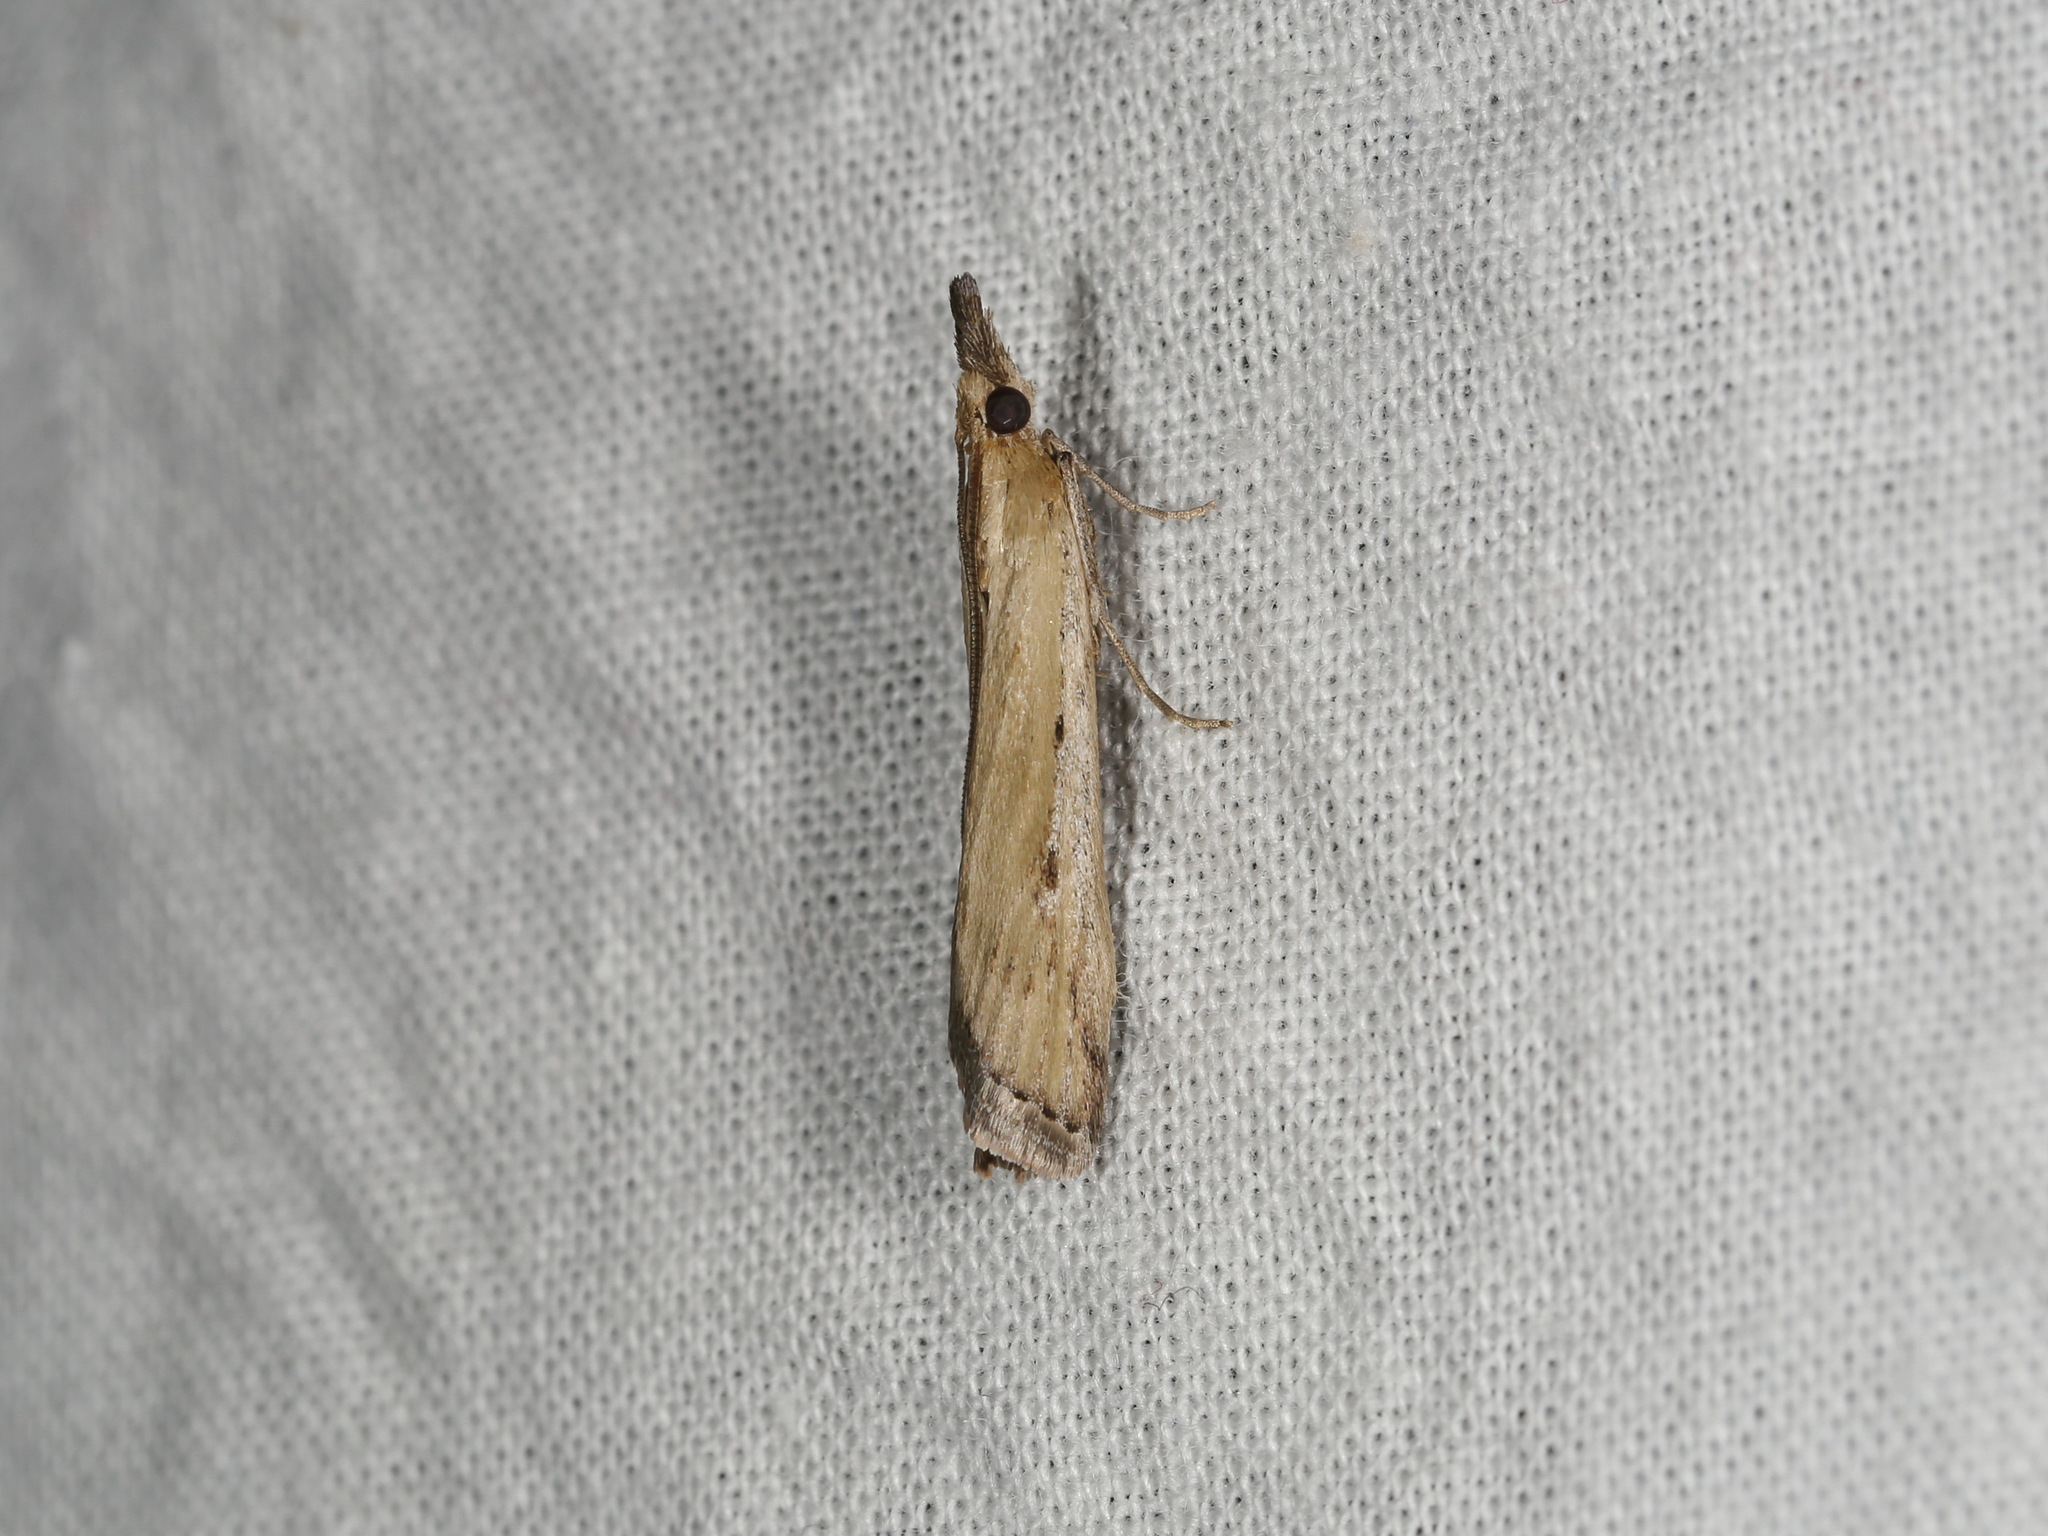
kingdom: Animalia
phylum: Arthropoda
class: Insecta
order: Lepidoptera
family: Pyralidae
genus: Faveria
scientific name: Faveria tritalis
